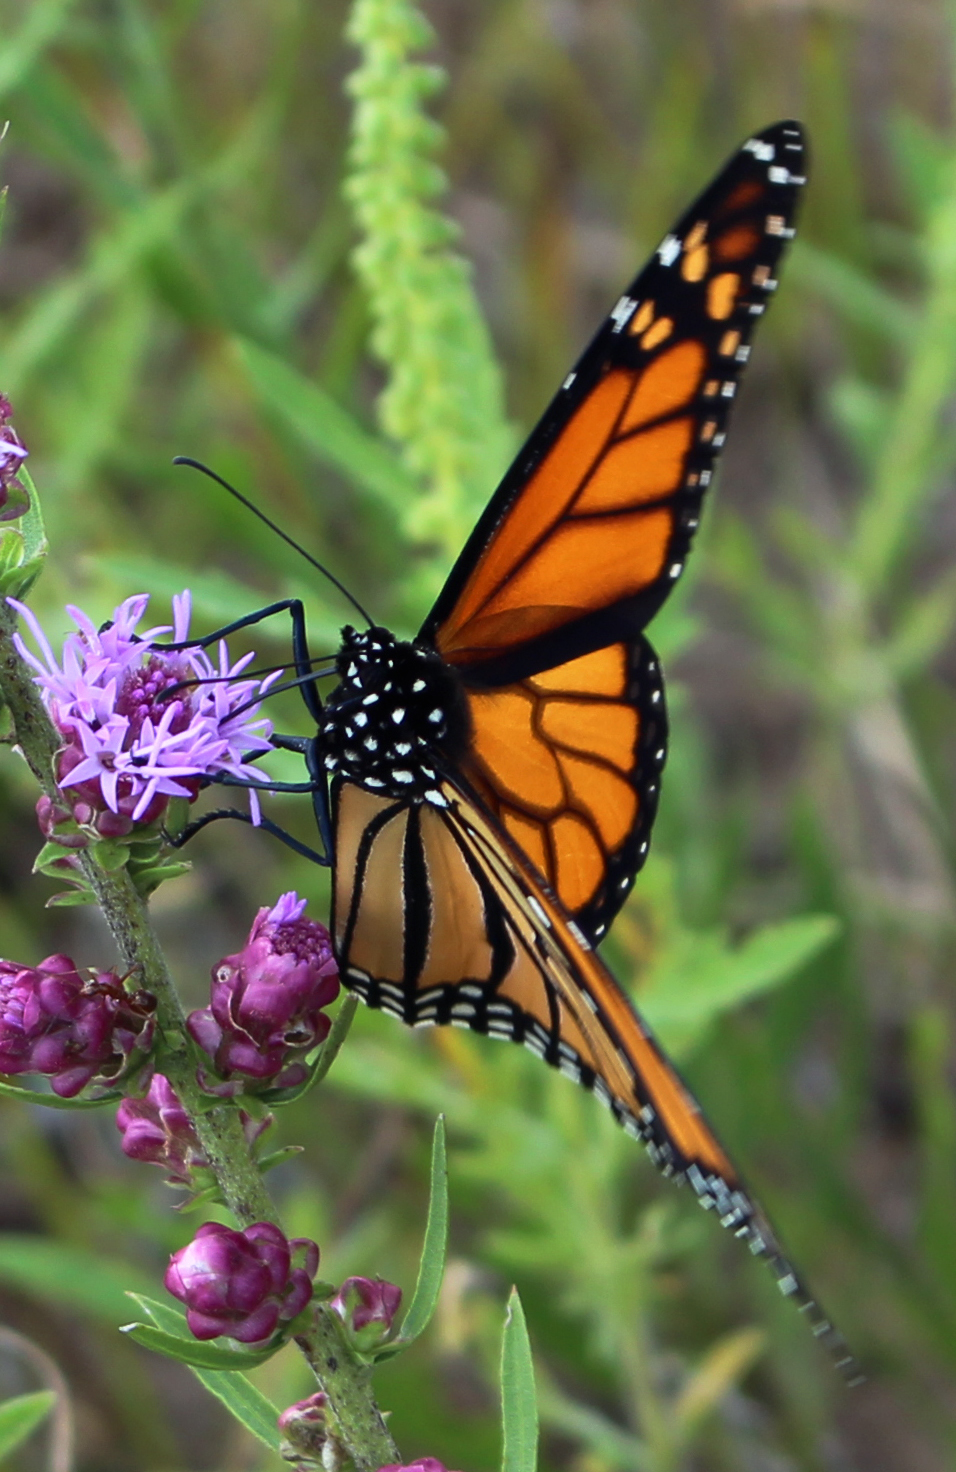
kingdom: Animalia
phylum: Arthropoda
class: Insecta
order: Lepidoptera
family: Nymphalidae
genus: Danaus
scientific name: Danaus plexippus
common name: Monarch
